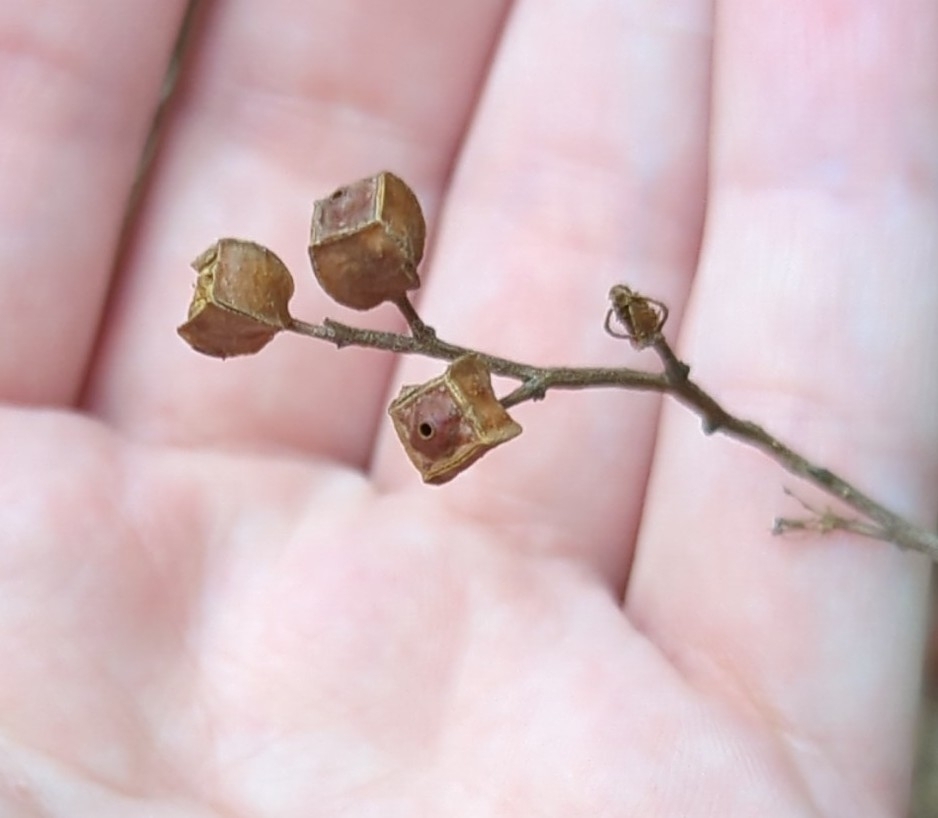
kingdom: Plantae
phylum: Tracheophyta
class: Magnoliopsida
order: Myrtales
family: Onagraceae
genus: Ludwigia
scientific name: Ludwigia alternifolia
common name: Rattlebox
